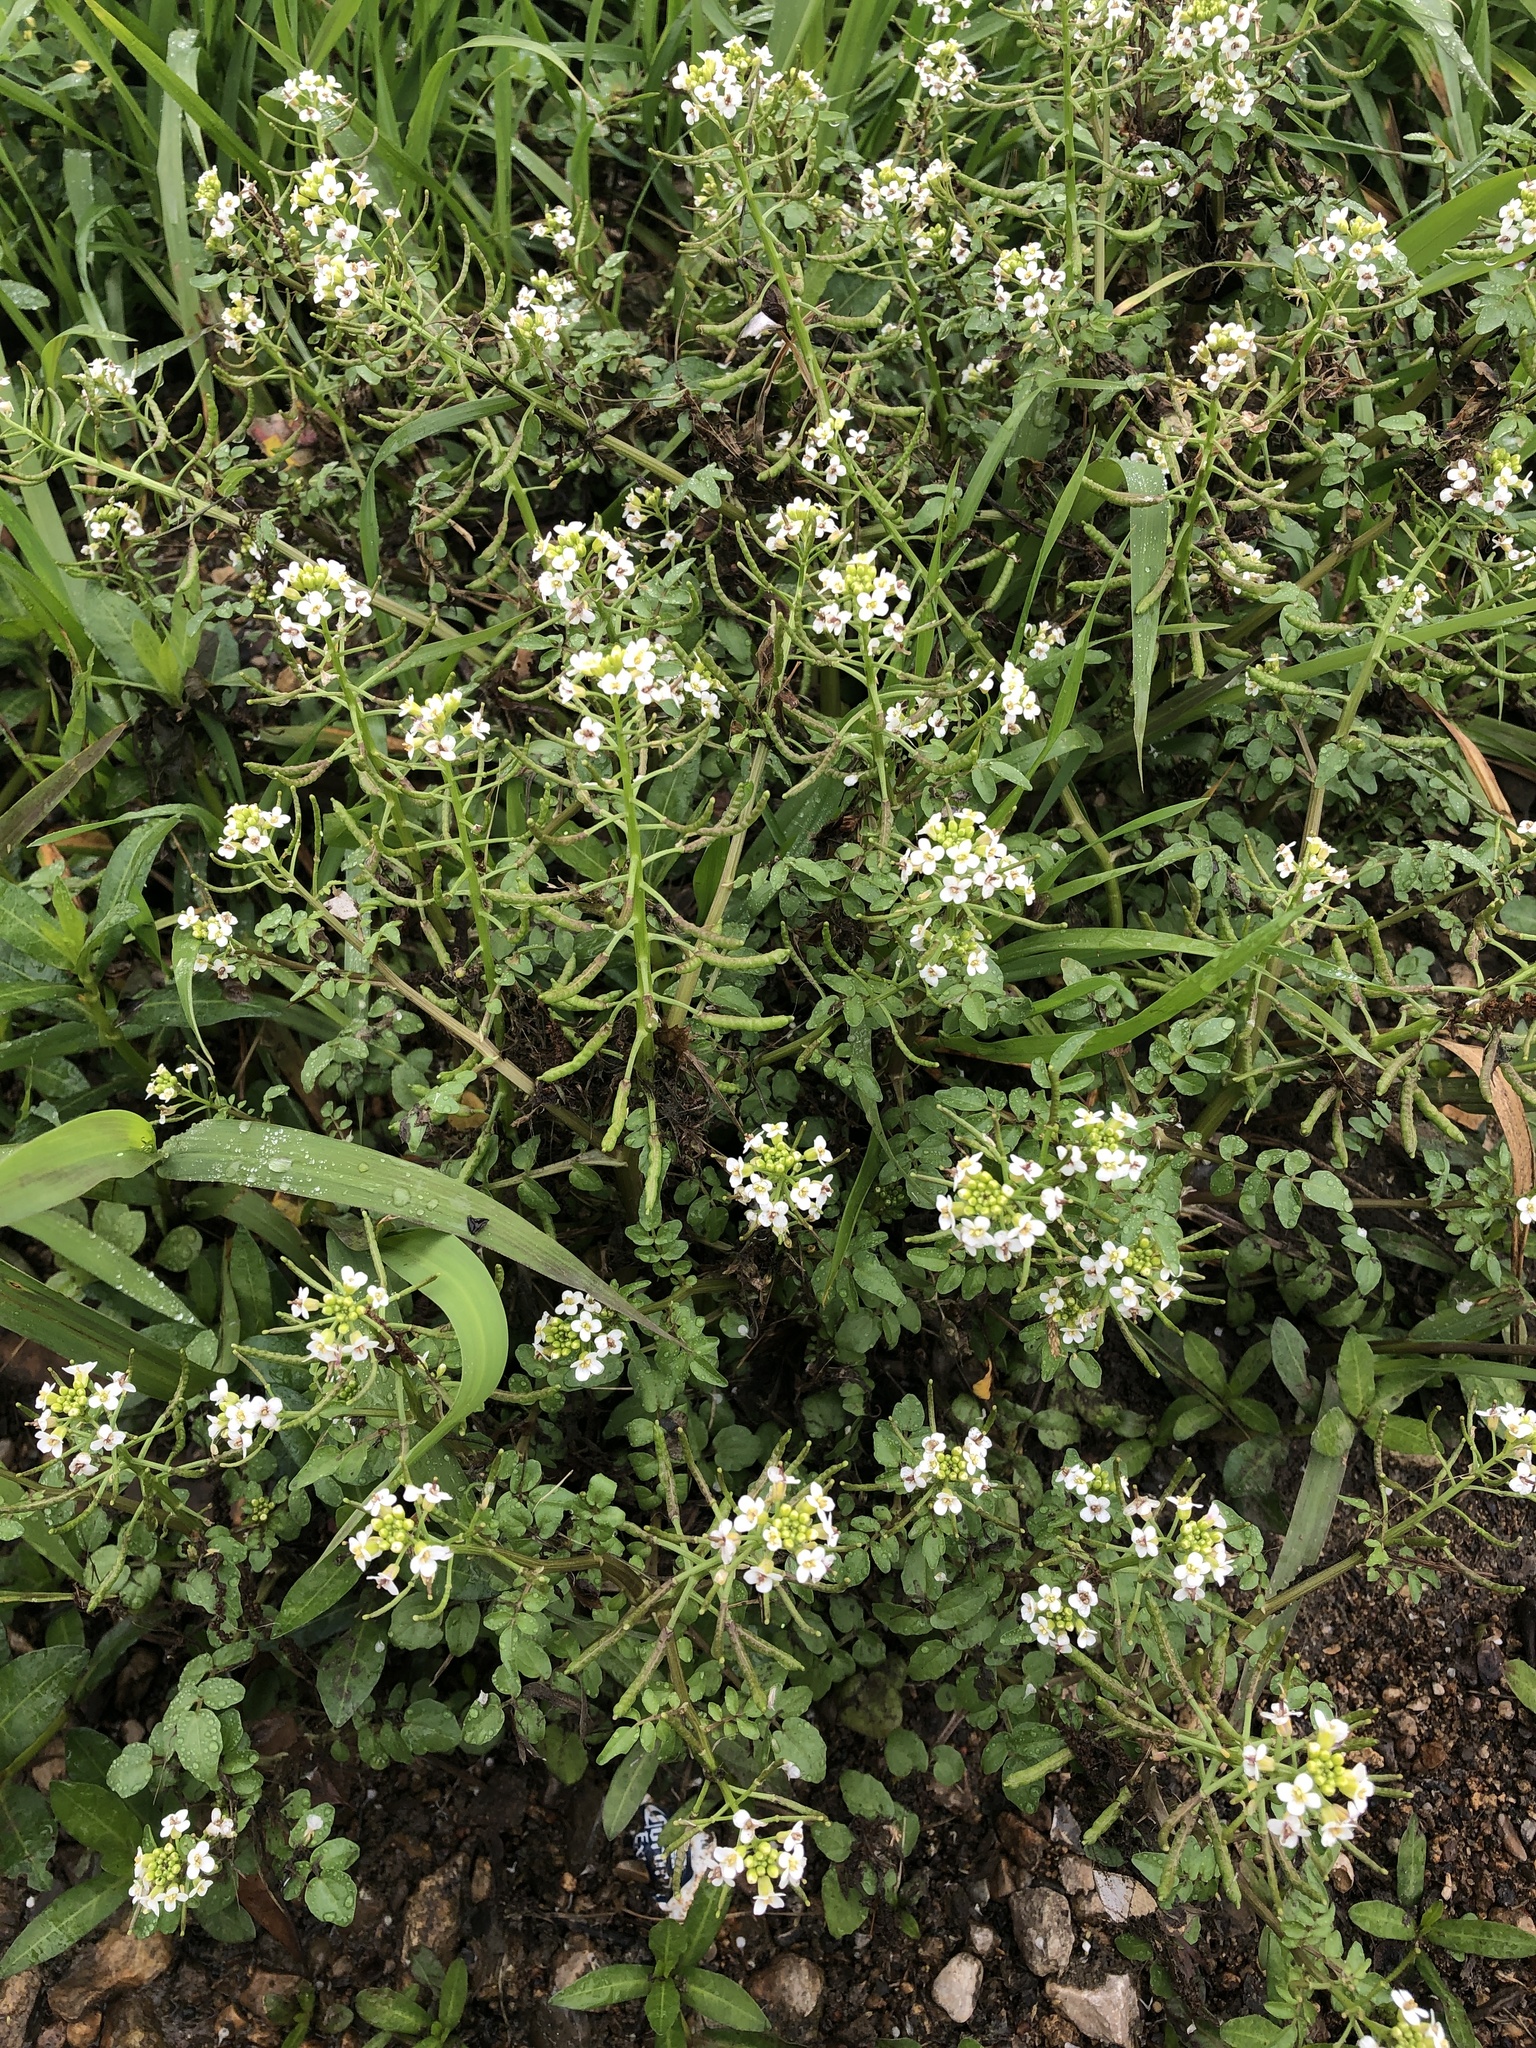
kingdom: Plantae
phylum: Tracheophyta
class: Magnoliopsida
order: Brassicales
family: Brassicaceae
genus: Nasturtium
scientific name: Nasturtium officinale
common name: Watercress
